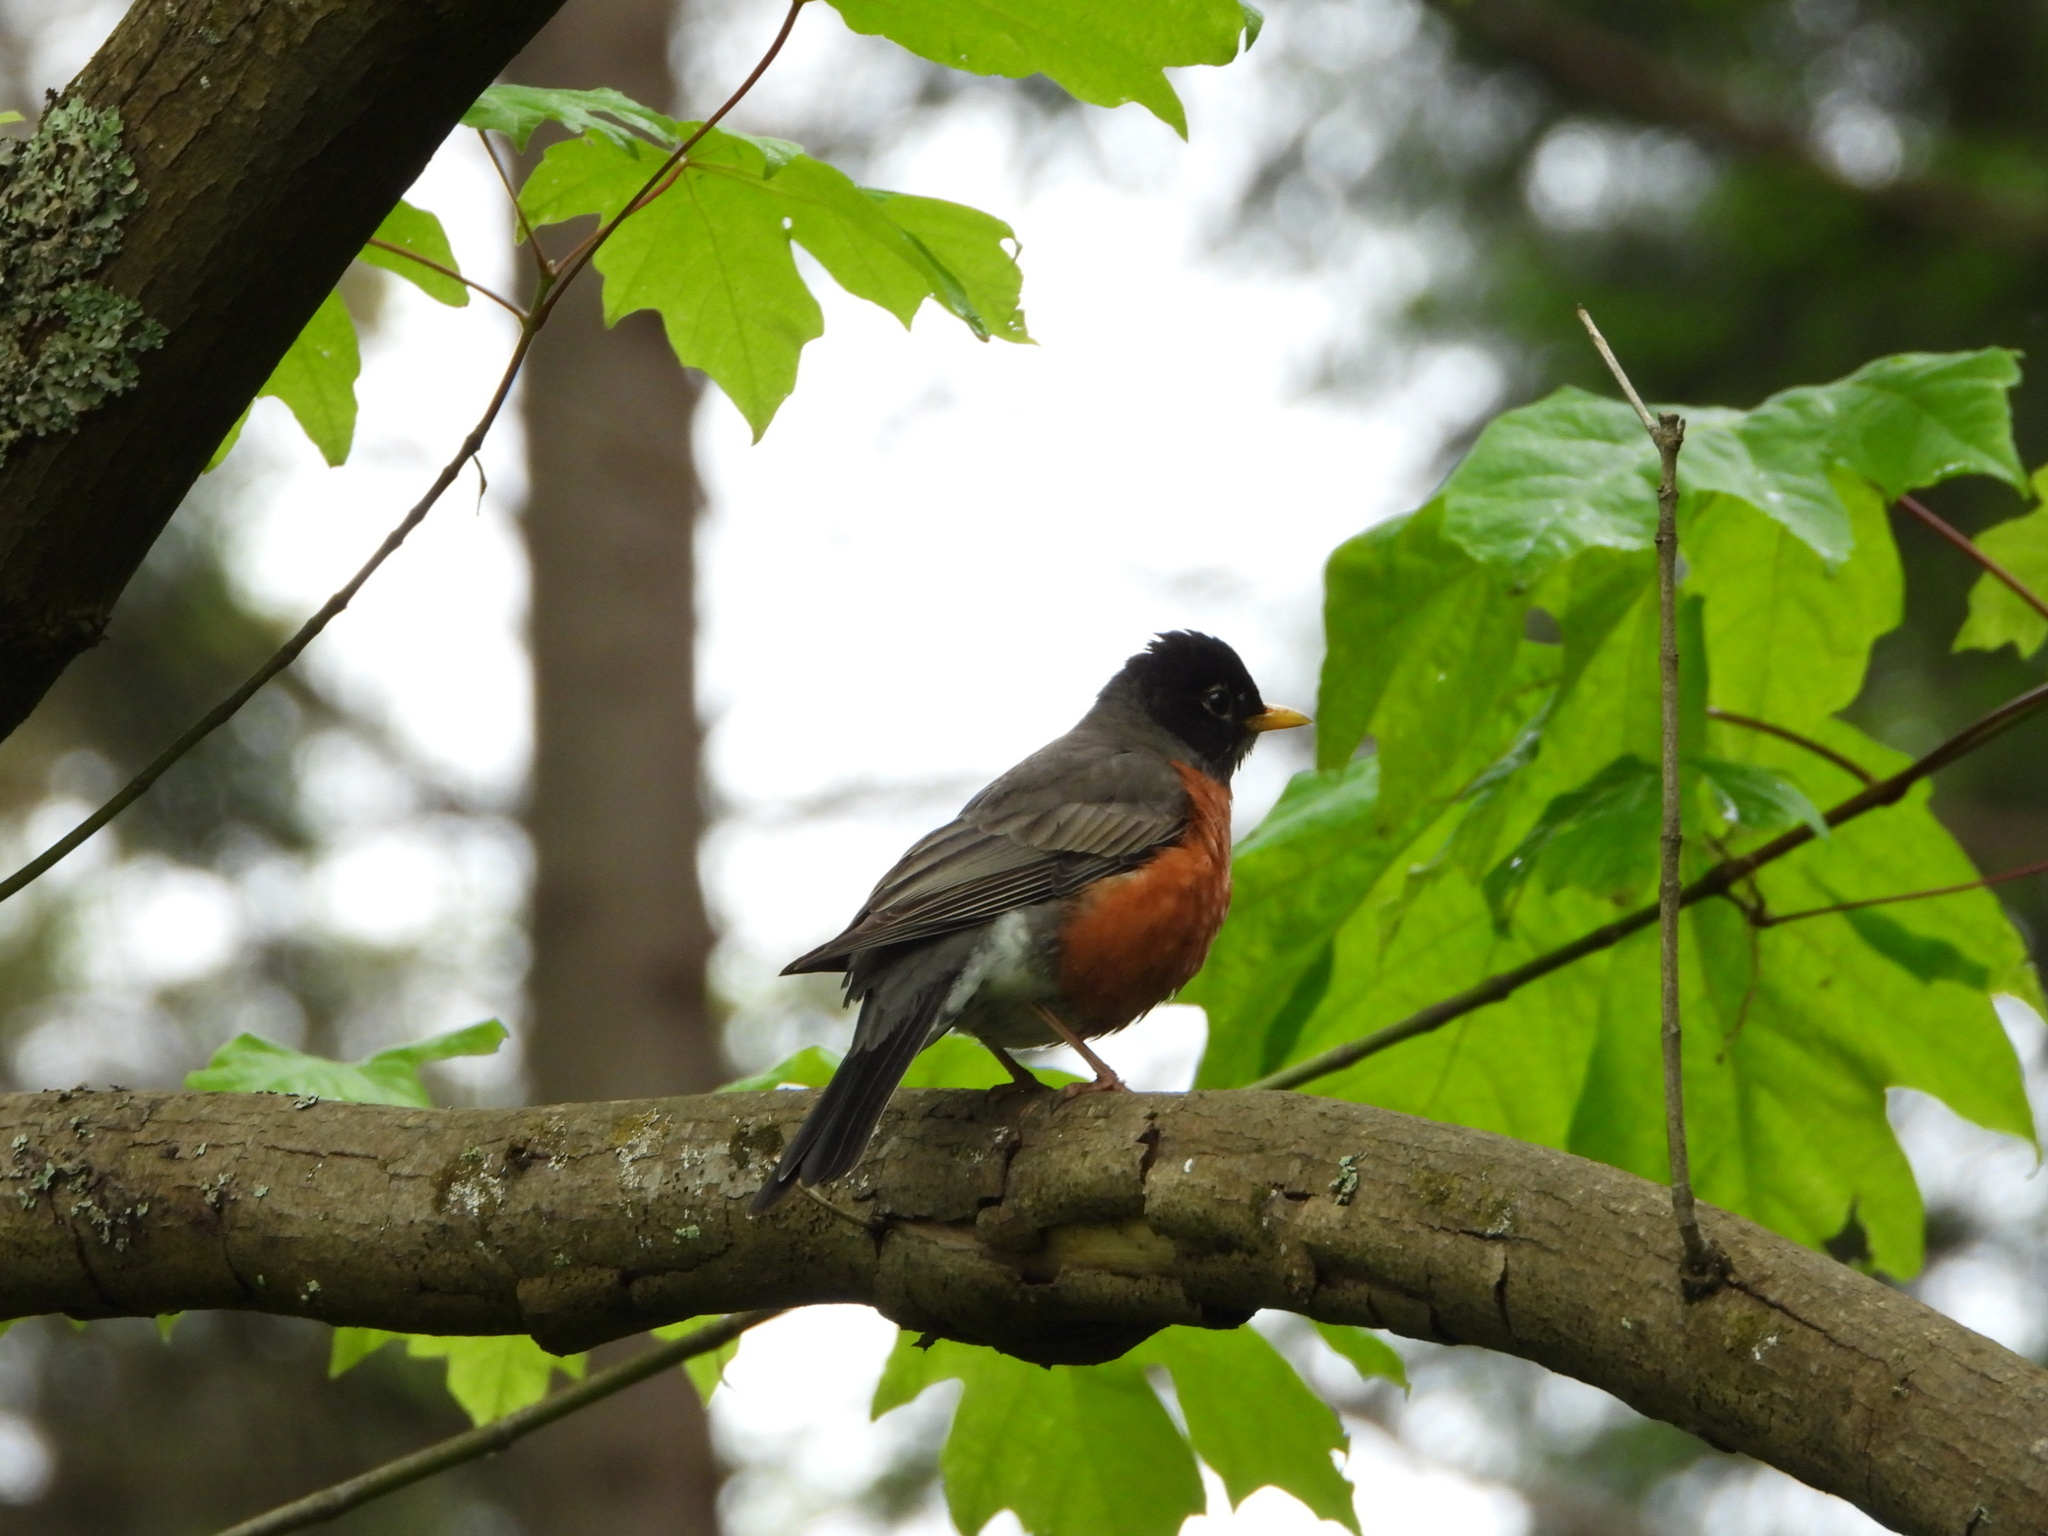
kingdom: Animalia
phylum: Chordata
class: Aves
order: Passeriformes
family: Turdidae
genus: Turdus
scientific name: Turdus migratorius
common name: American robin
